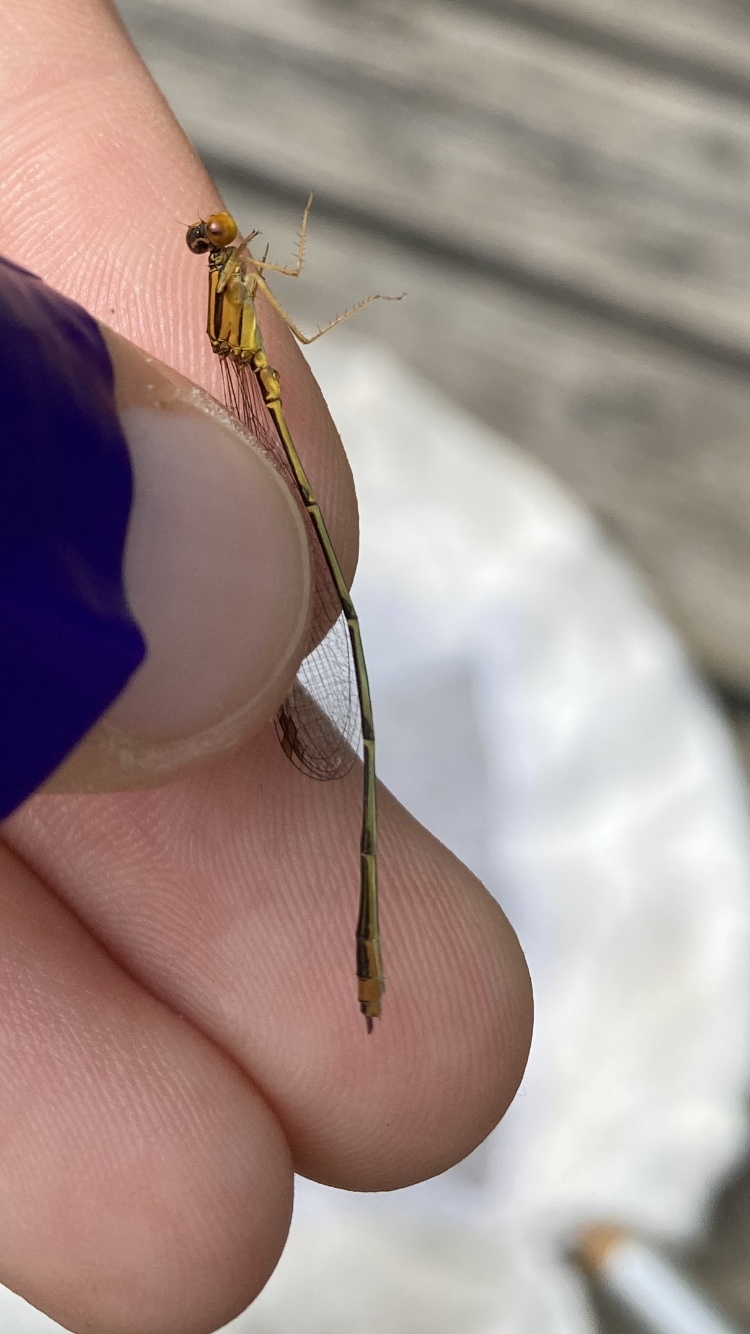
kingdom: Animalia
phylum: Arthropoda
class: Insecta
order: Odonata
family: Coenagrionidae
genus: Enallagma
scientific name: Enallagma signatum
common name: Orange bluet
